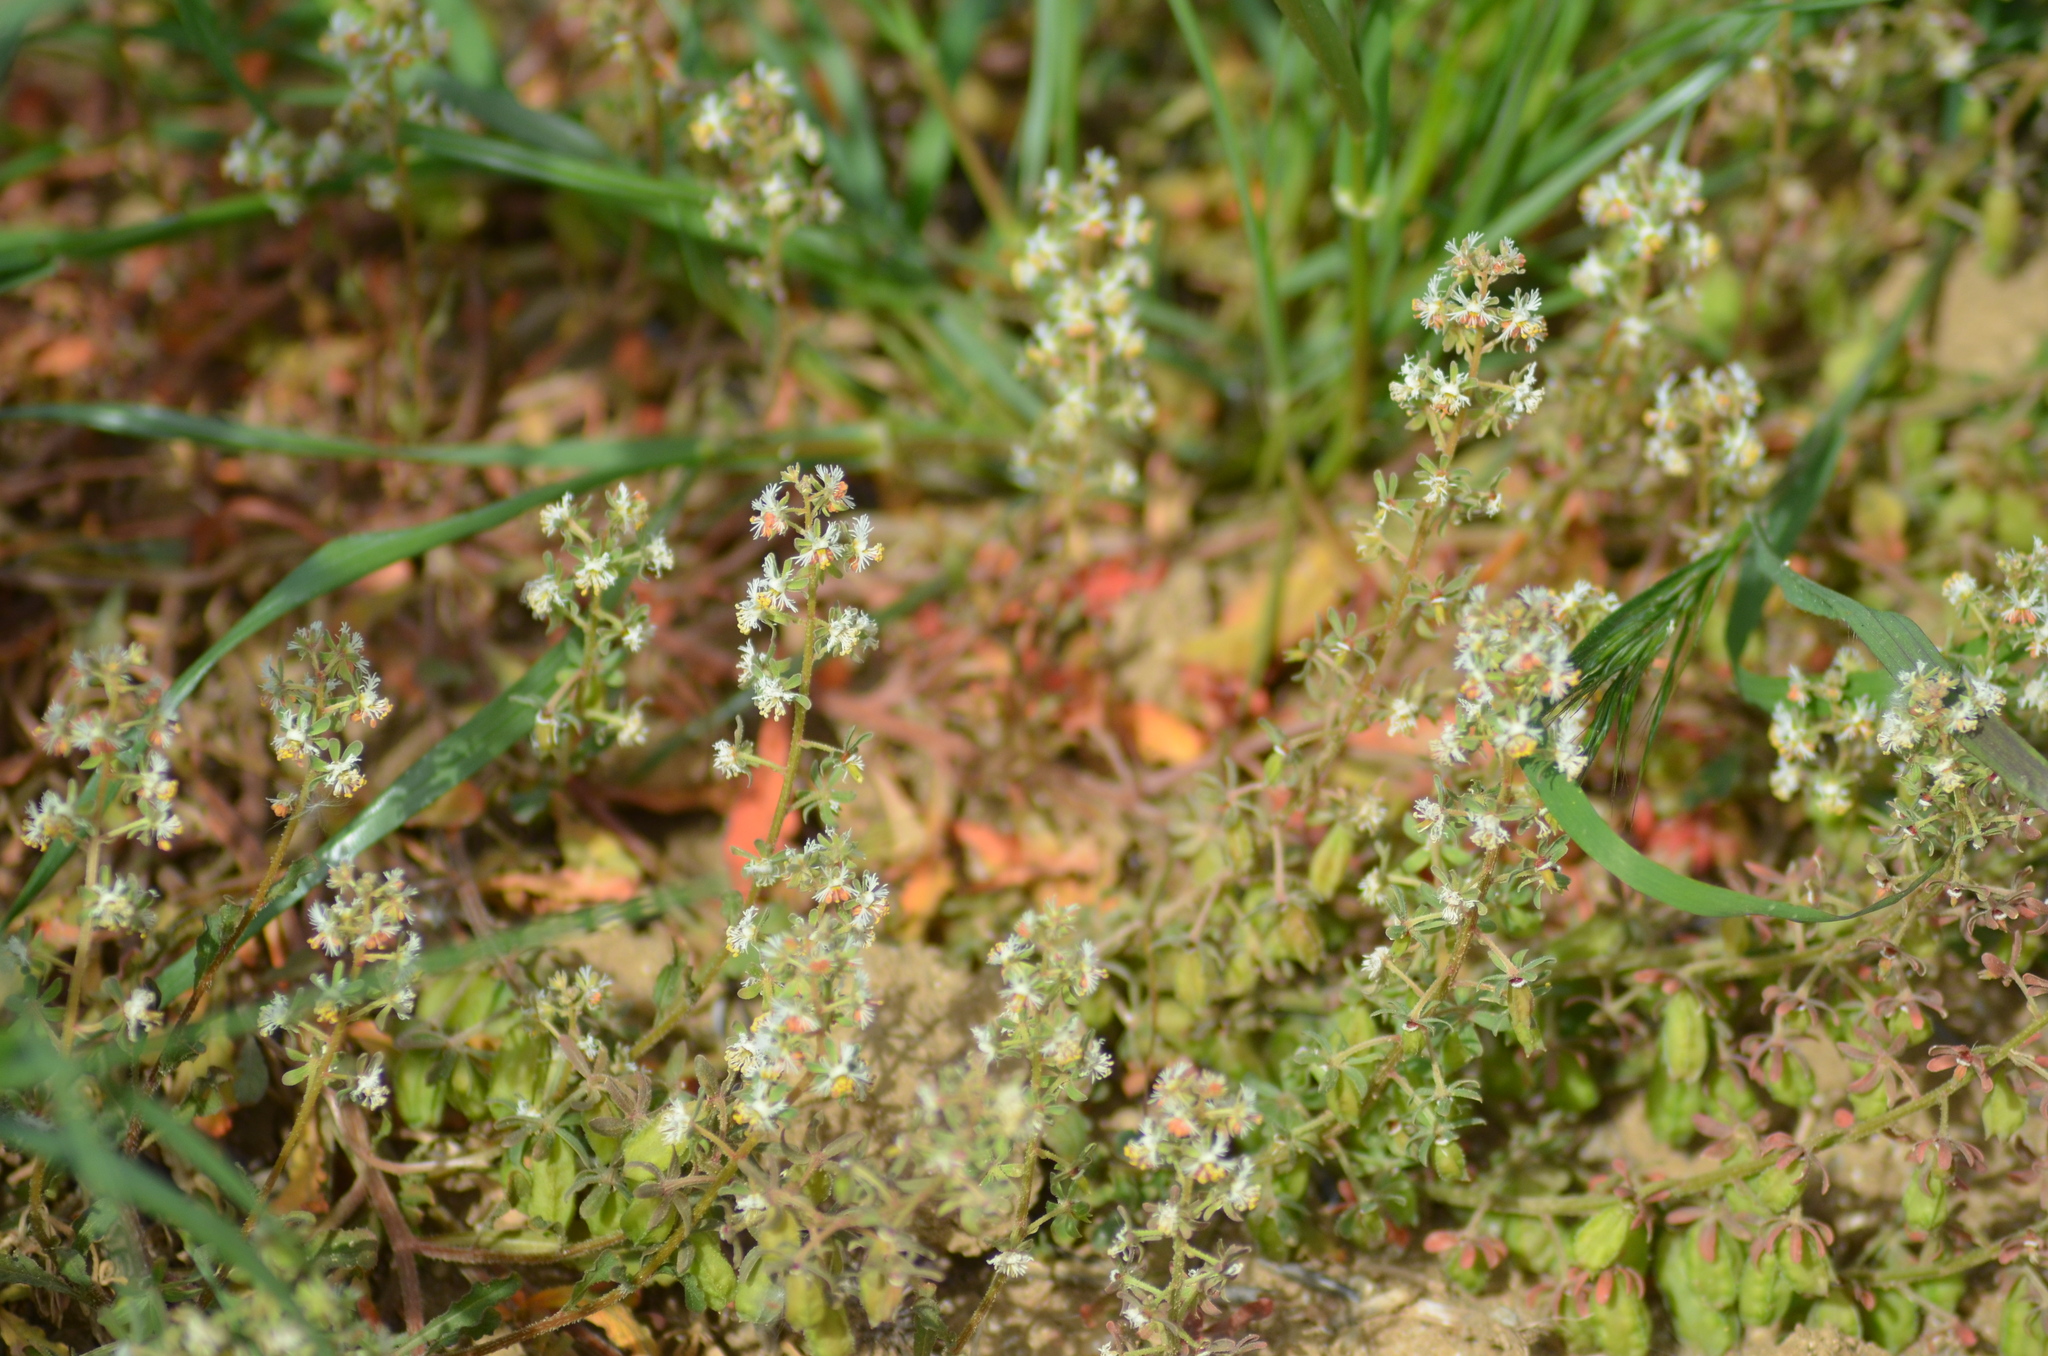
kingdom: Plantae
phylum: Tracheophyta
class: Magnoliopsida
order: Brassicales
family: Resedaceae
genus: Reseda
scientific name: Reseda phyteuma
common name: Corn mignonette
